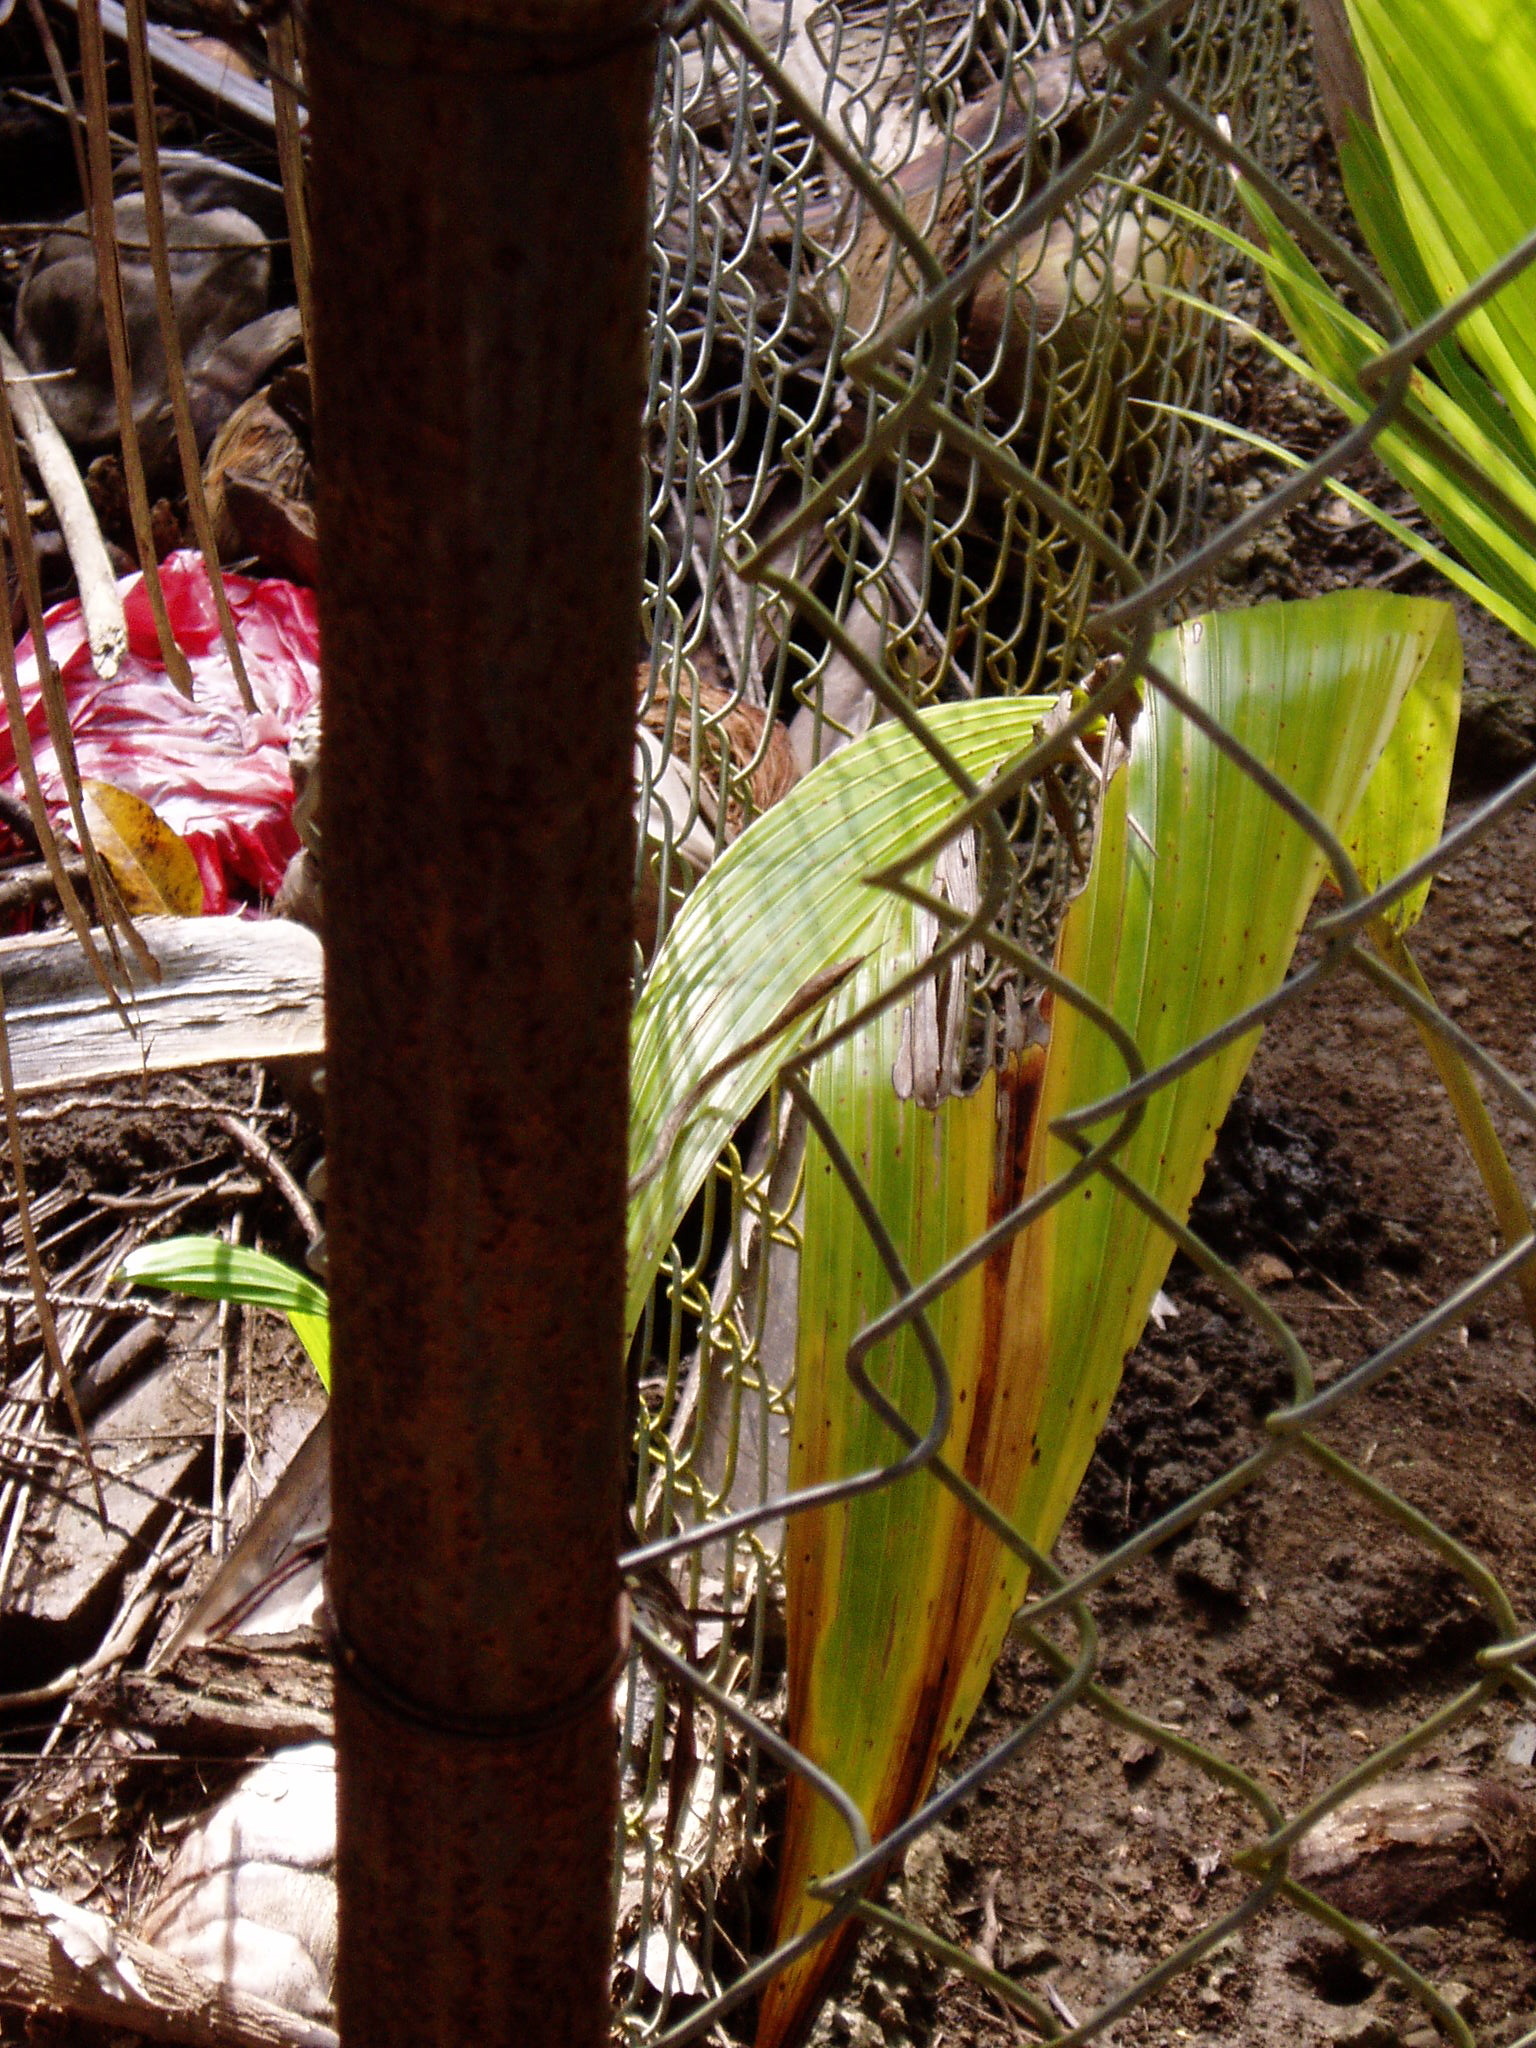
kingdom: Animalia
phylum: Chordata
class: Squamata
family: Colubridae
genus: Oxybelis
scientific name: Oxybelis vittatus
